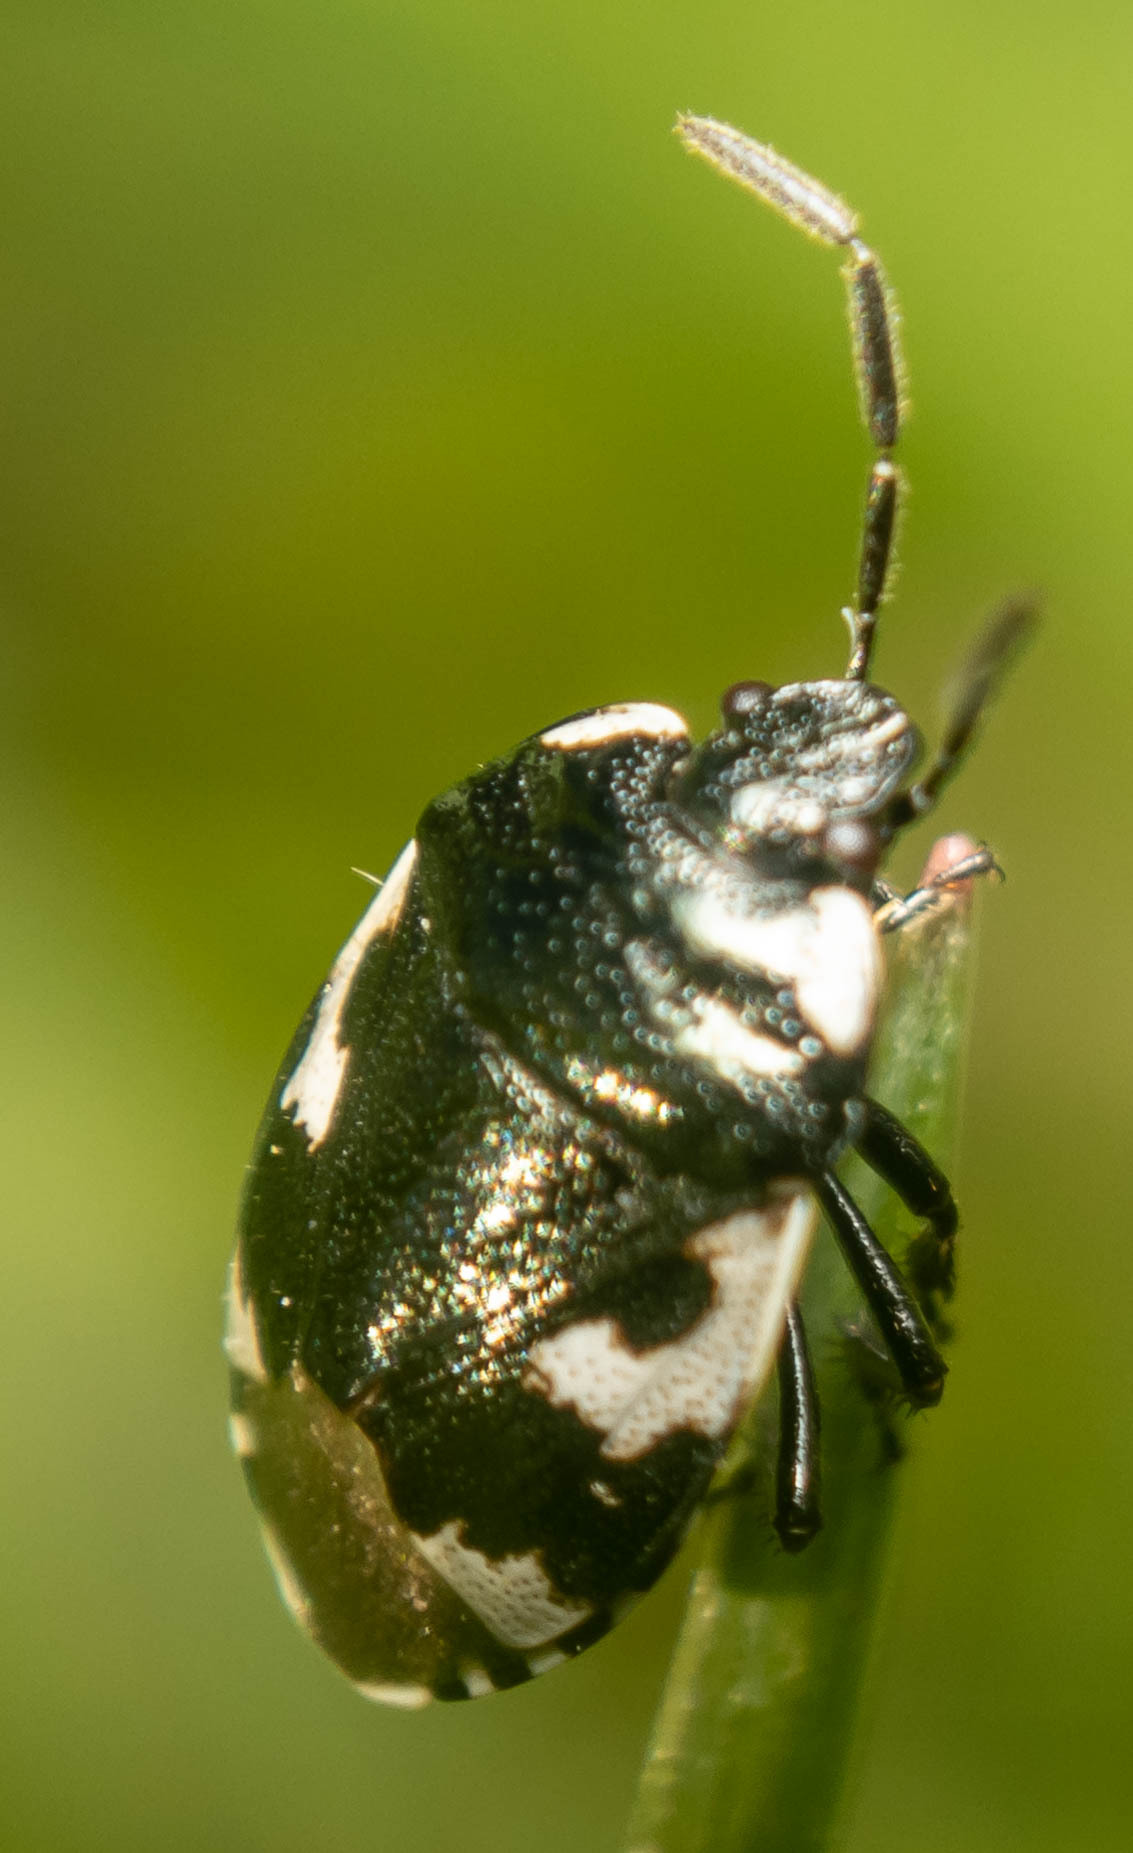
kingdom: Animalia
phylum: Arthropoda
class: Insecta
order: Hemiptera
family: Cydnidae
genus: Tritomegas
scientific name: Tritomegas bicolor
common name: Pied shieldbug
